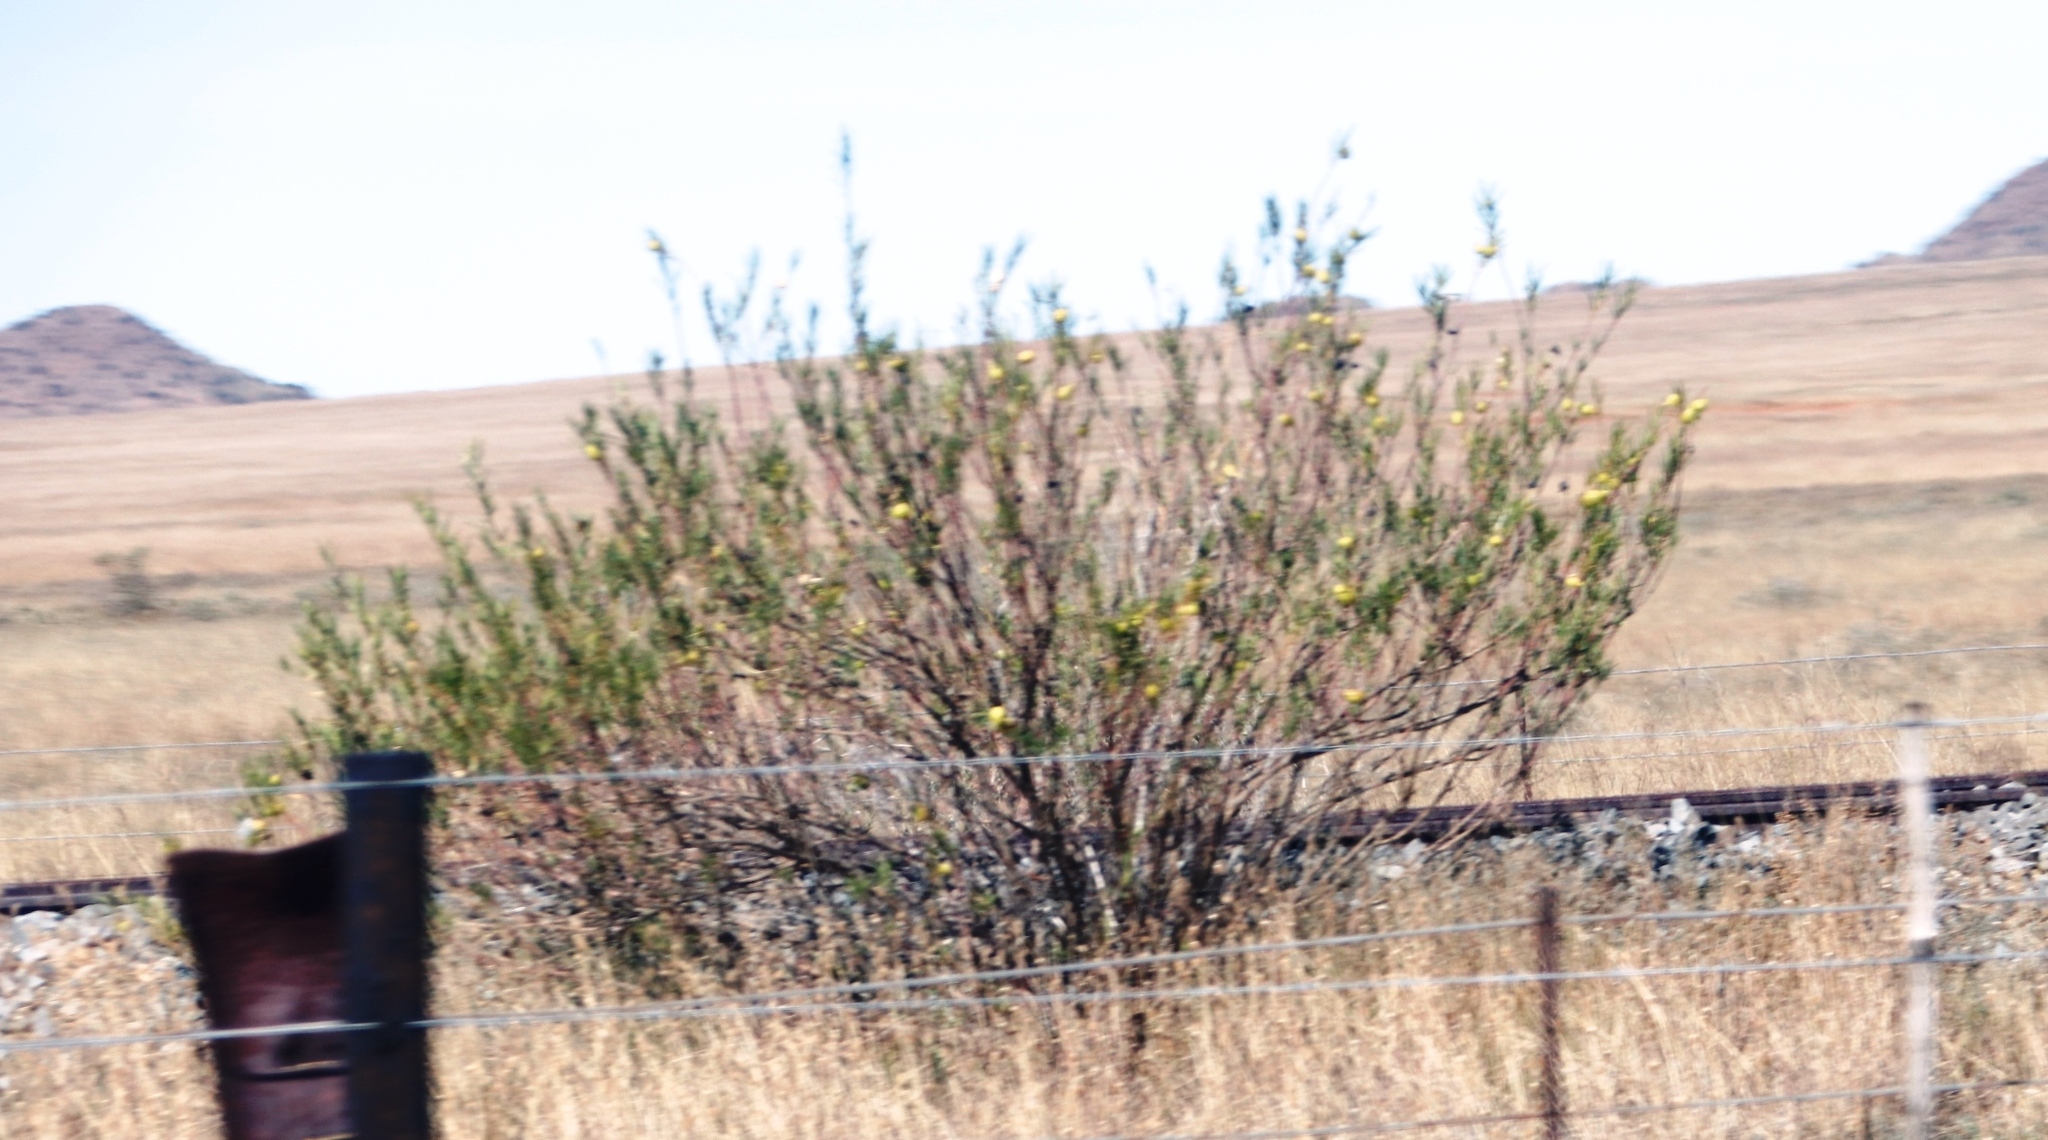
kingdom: Plantae
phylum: Tracheophyta
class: Magnoliopsida
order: Gentianales
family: Apocynaceae
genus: Gomphocarpus
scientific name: Gomphocarpus fruticosus
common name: Milkweed
